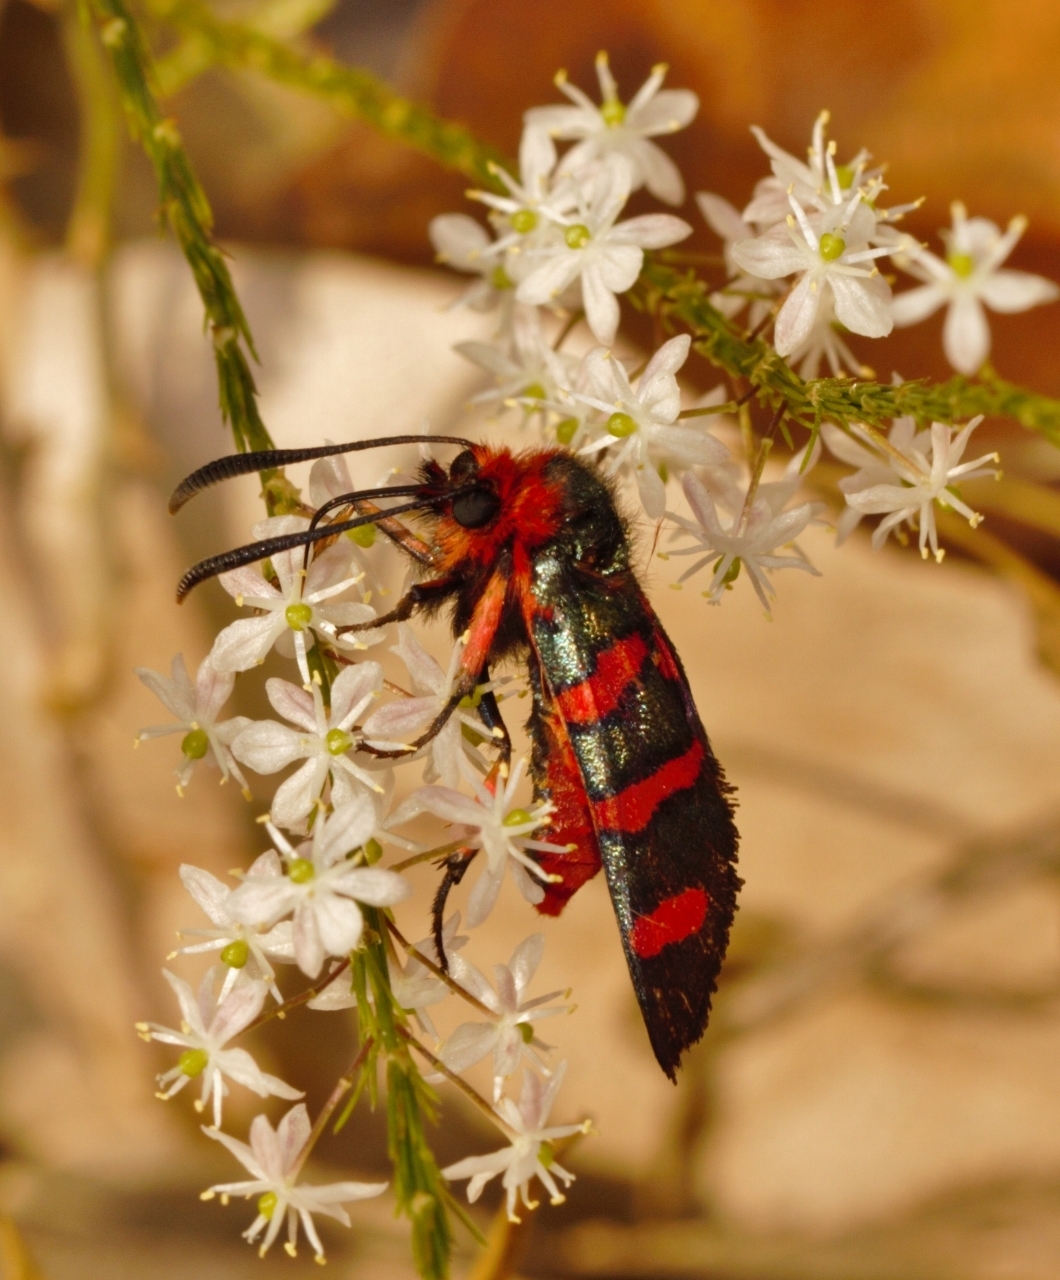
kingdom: Animalia
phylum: Arthropoda
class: Insecta
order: Lepidoptera
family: Thyrididae
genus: Arniocera
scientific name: Arniocera erythropyga
